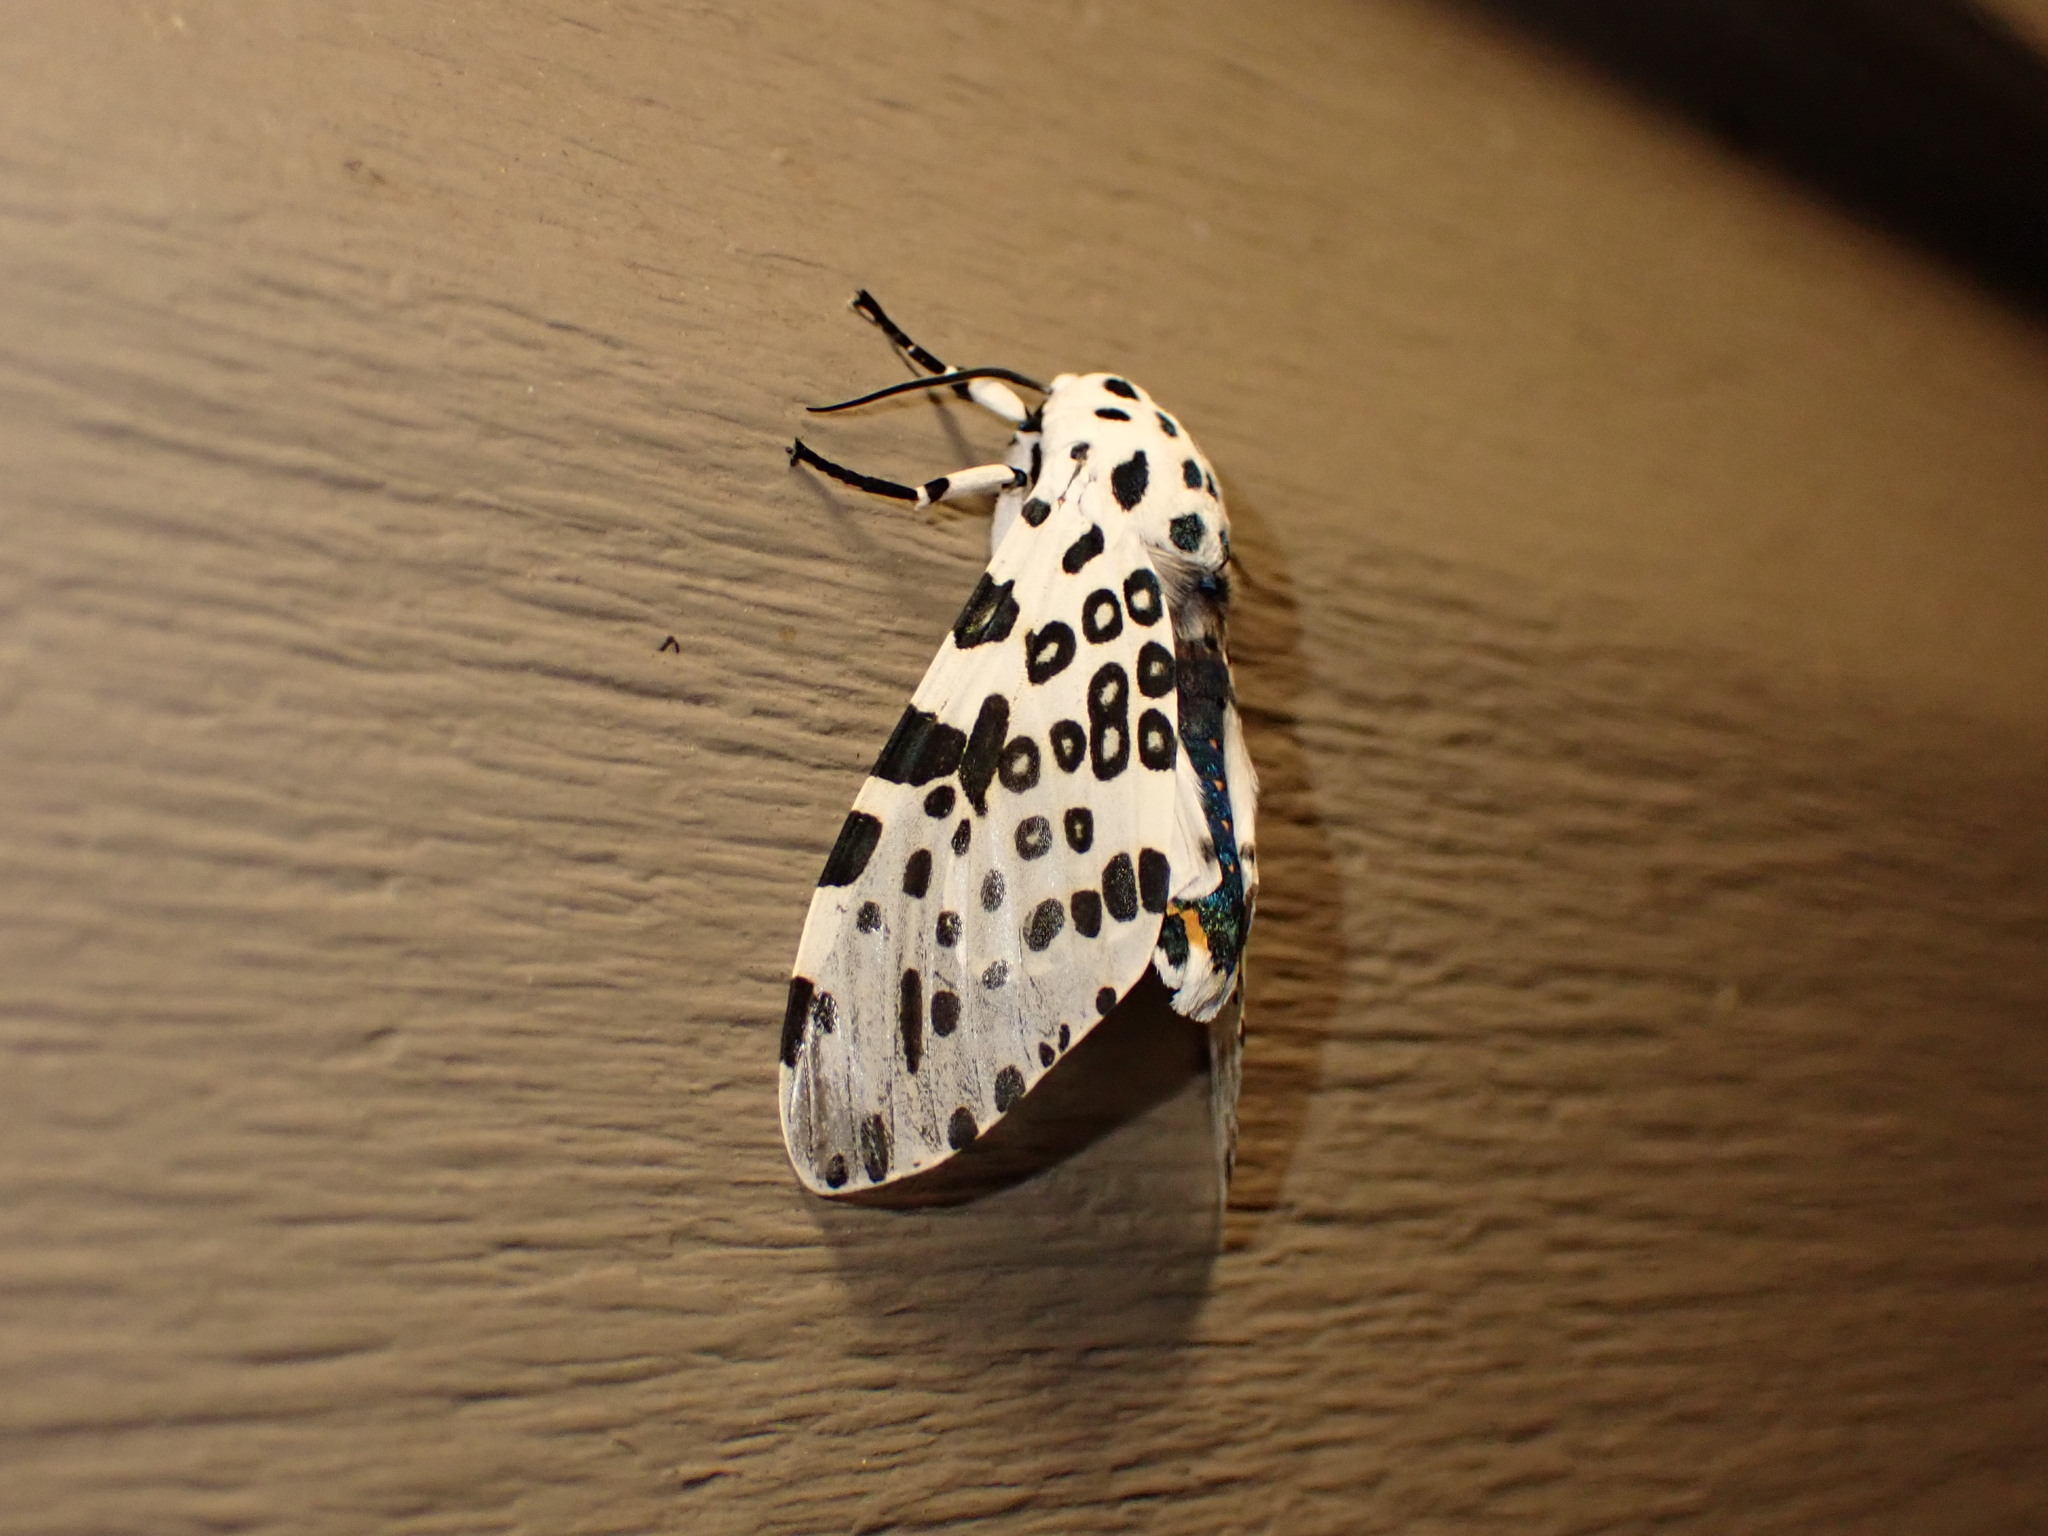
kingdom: Animalia
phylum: Arthropoda
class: Insecta
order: Lepidoptera
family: Erebidae
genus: Hypercompe
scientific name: Hypercompe scribonia
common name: Giant leopard moth
